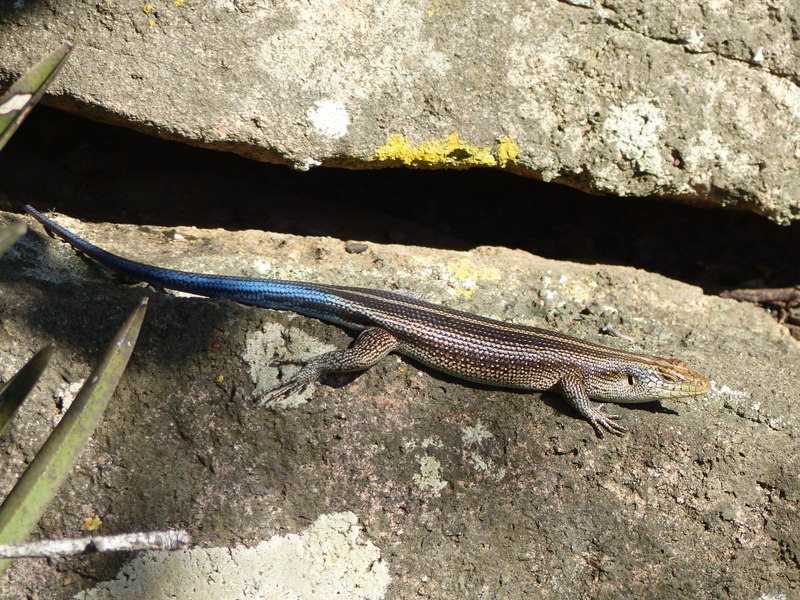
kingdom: Animalia
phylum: Chordata
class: Squamata
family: Scincidae
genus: Trachylepis
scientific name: Trachylepis margaritifera
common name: Rainbow skink
